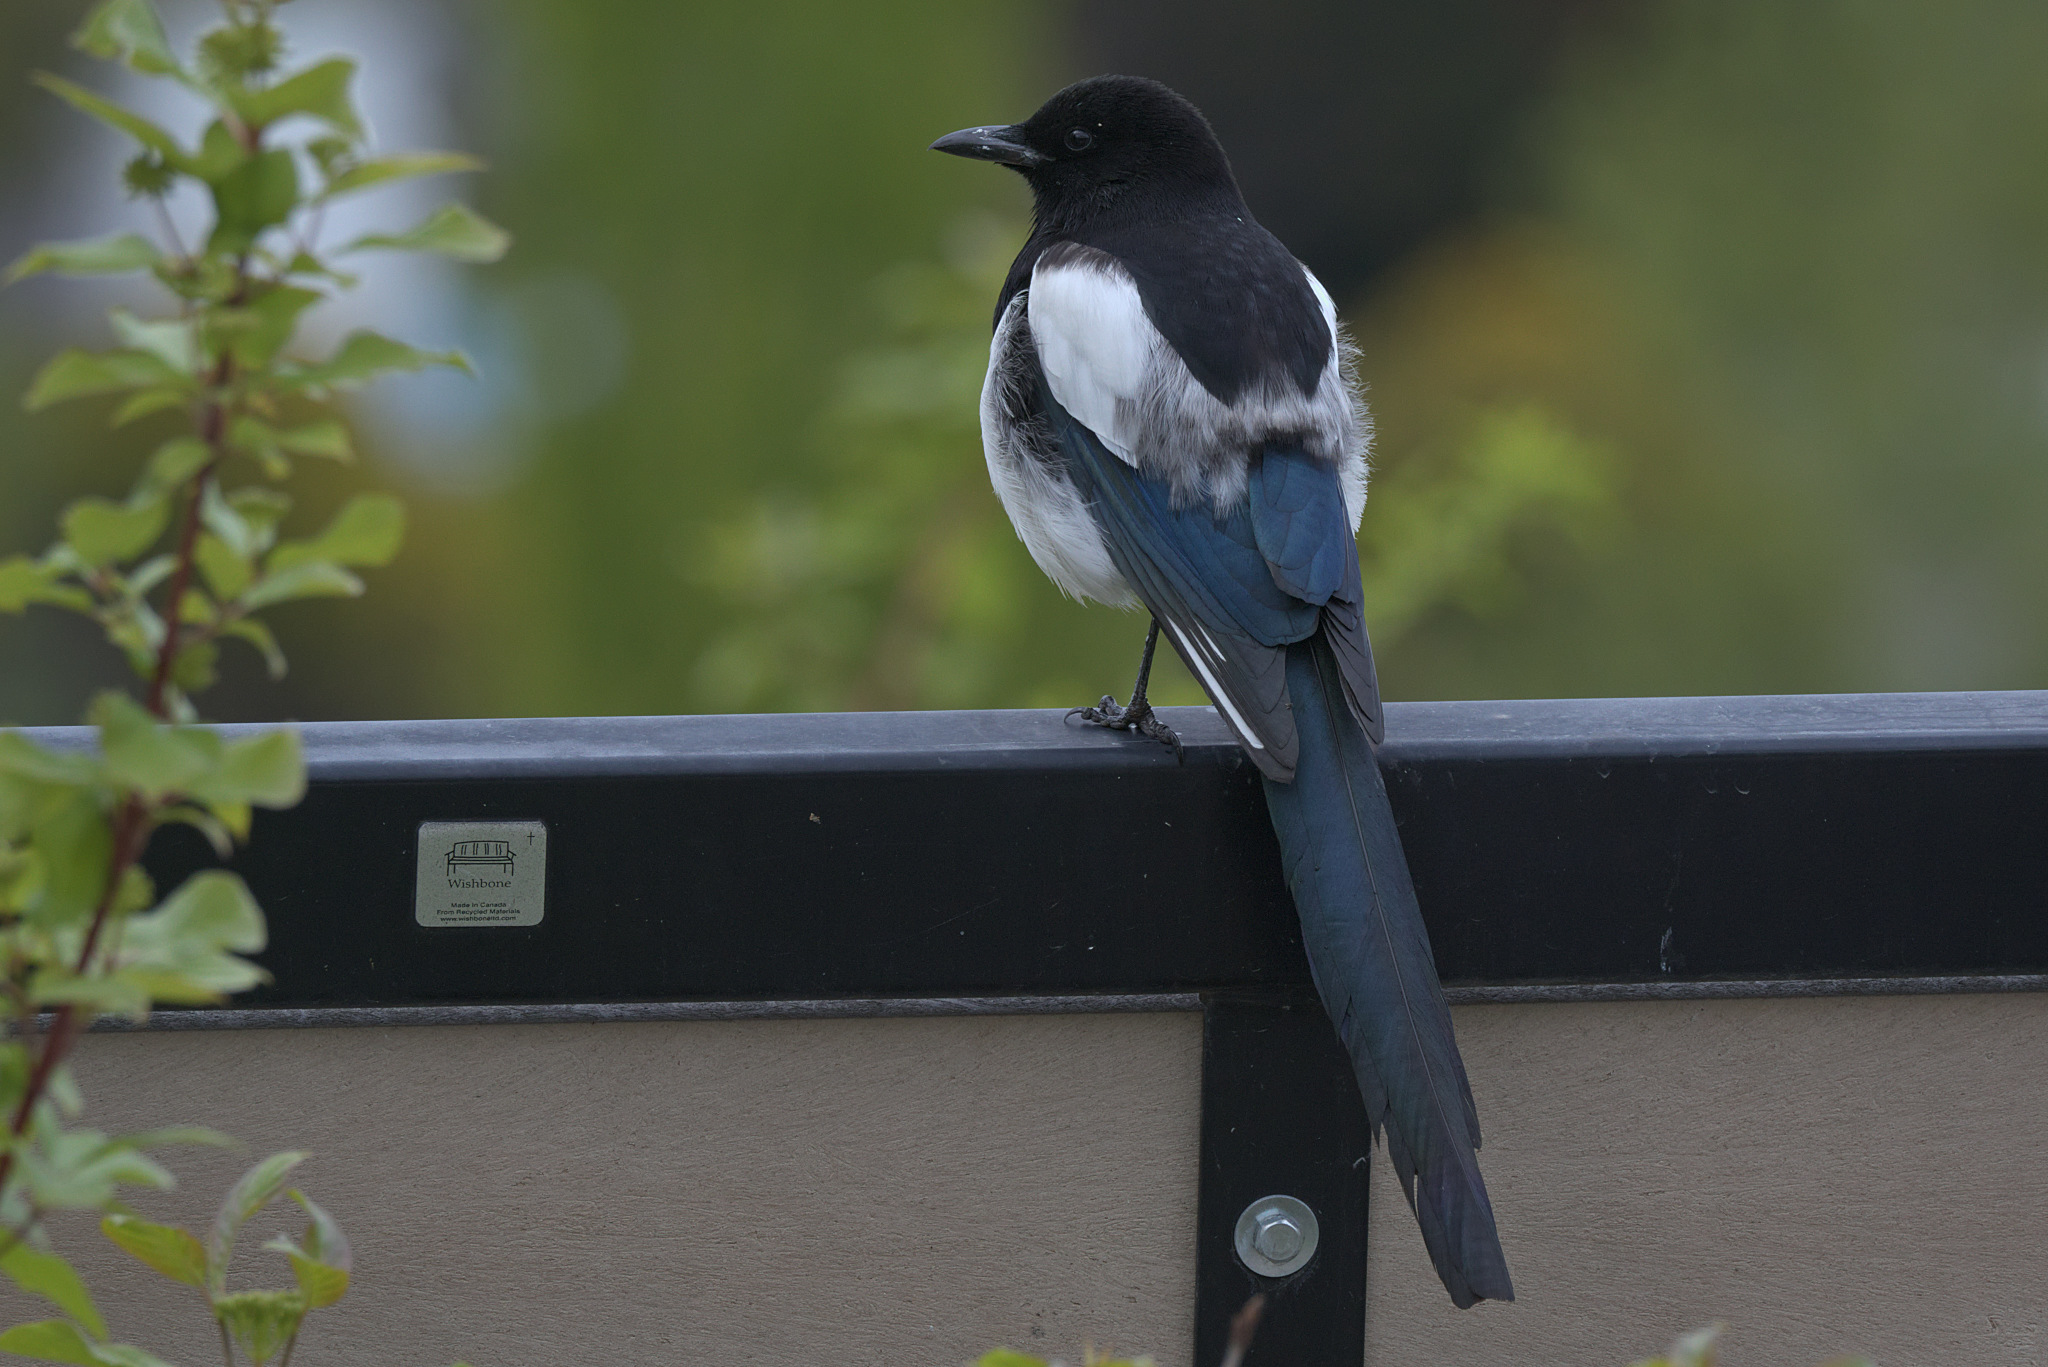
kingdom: Animalia
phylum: Chordata
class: Aves
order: Passeriformes
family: Corvidae
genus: Pica
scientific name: Pica hudsonia
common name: Black-billed magpie
